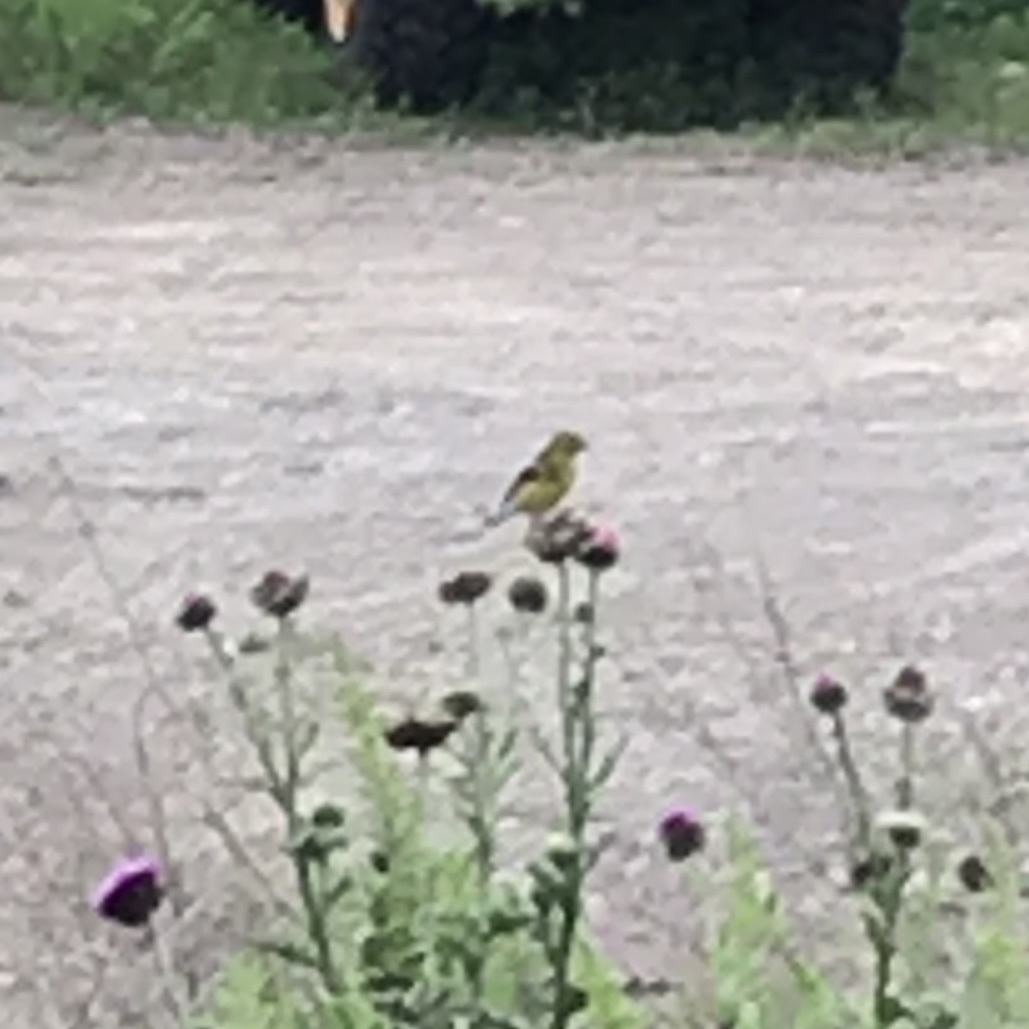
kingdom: Animalia
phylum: Chordata
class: Aves
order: Passeriformes
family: Fringillidae
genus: Spinus
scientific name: Spinus tristis
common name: American goldfinch
